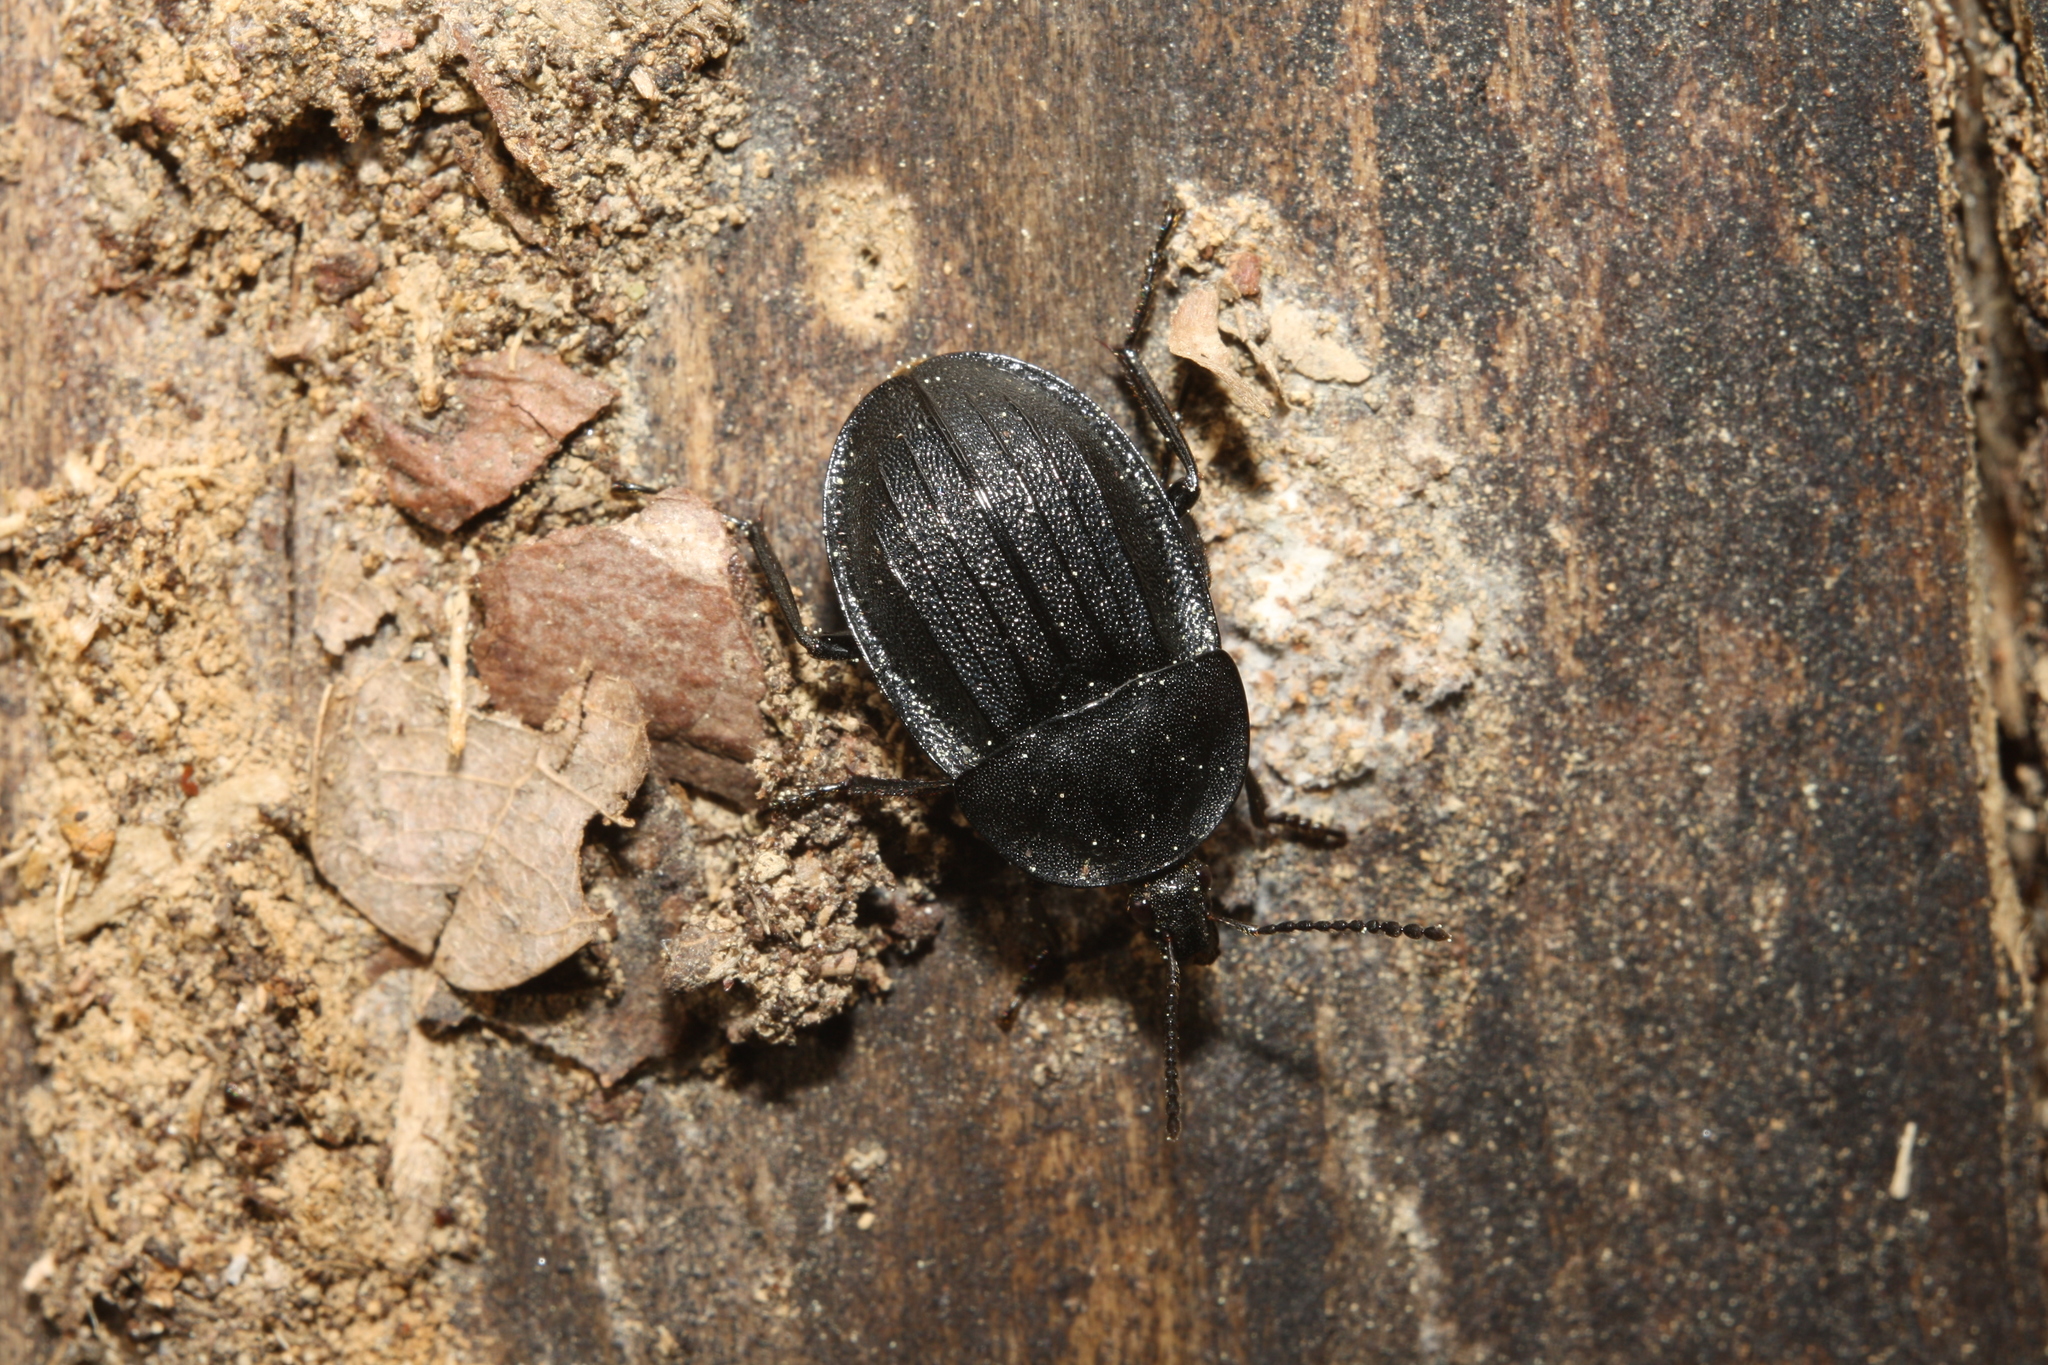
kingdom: Animalia
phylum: Arthropoda
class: Insecta
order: Coleoptera
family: Staphylinidae
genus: Silpha
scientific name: Silpha atrata
